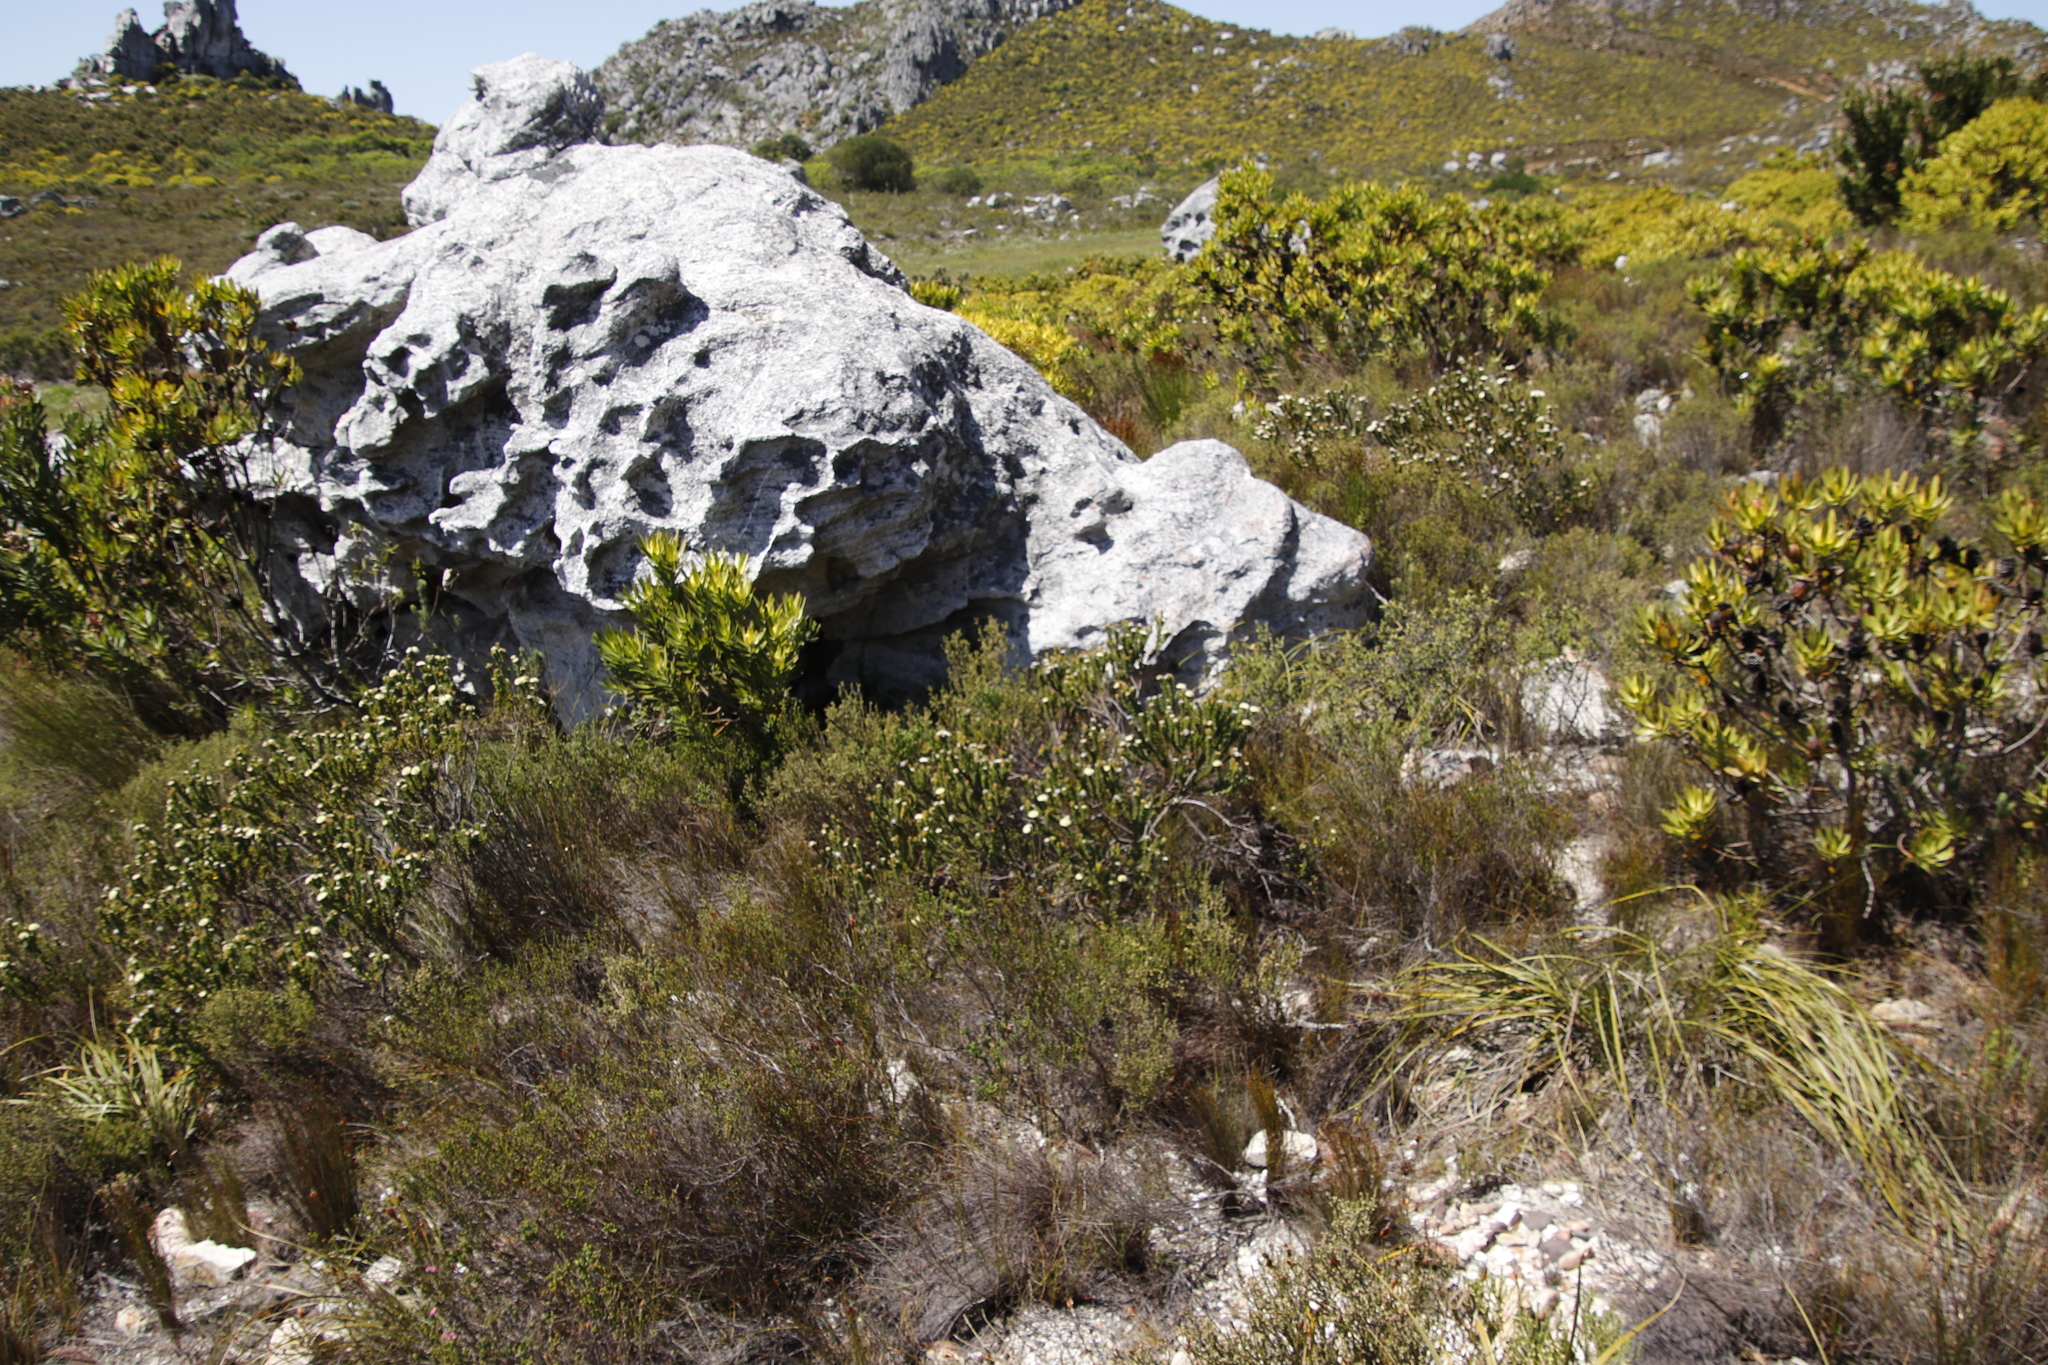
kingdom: Plantae
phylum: Tracheophyta
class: Magnoliopsida
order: Proteales
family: Proteaceae
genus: Diastella
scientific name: Diastella thymelaeoides
